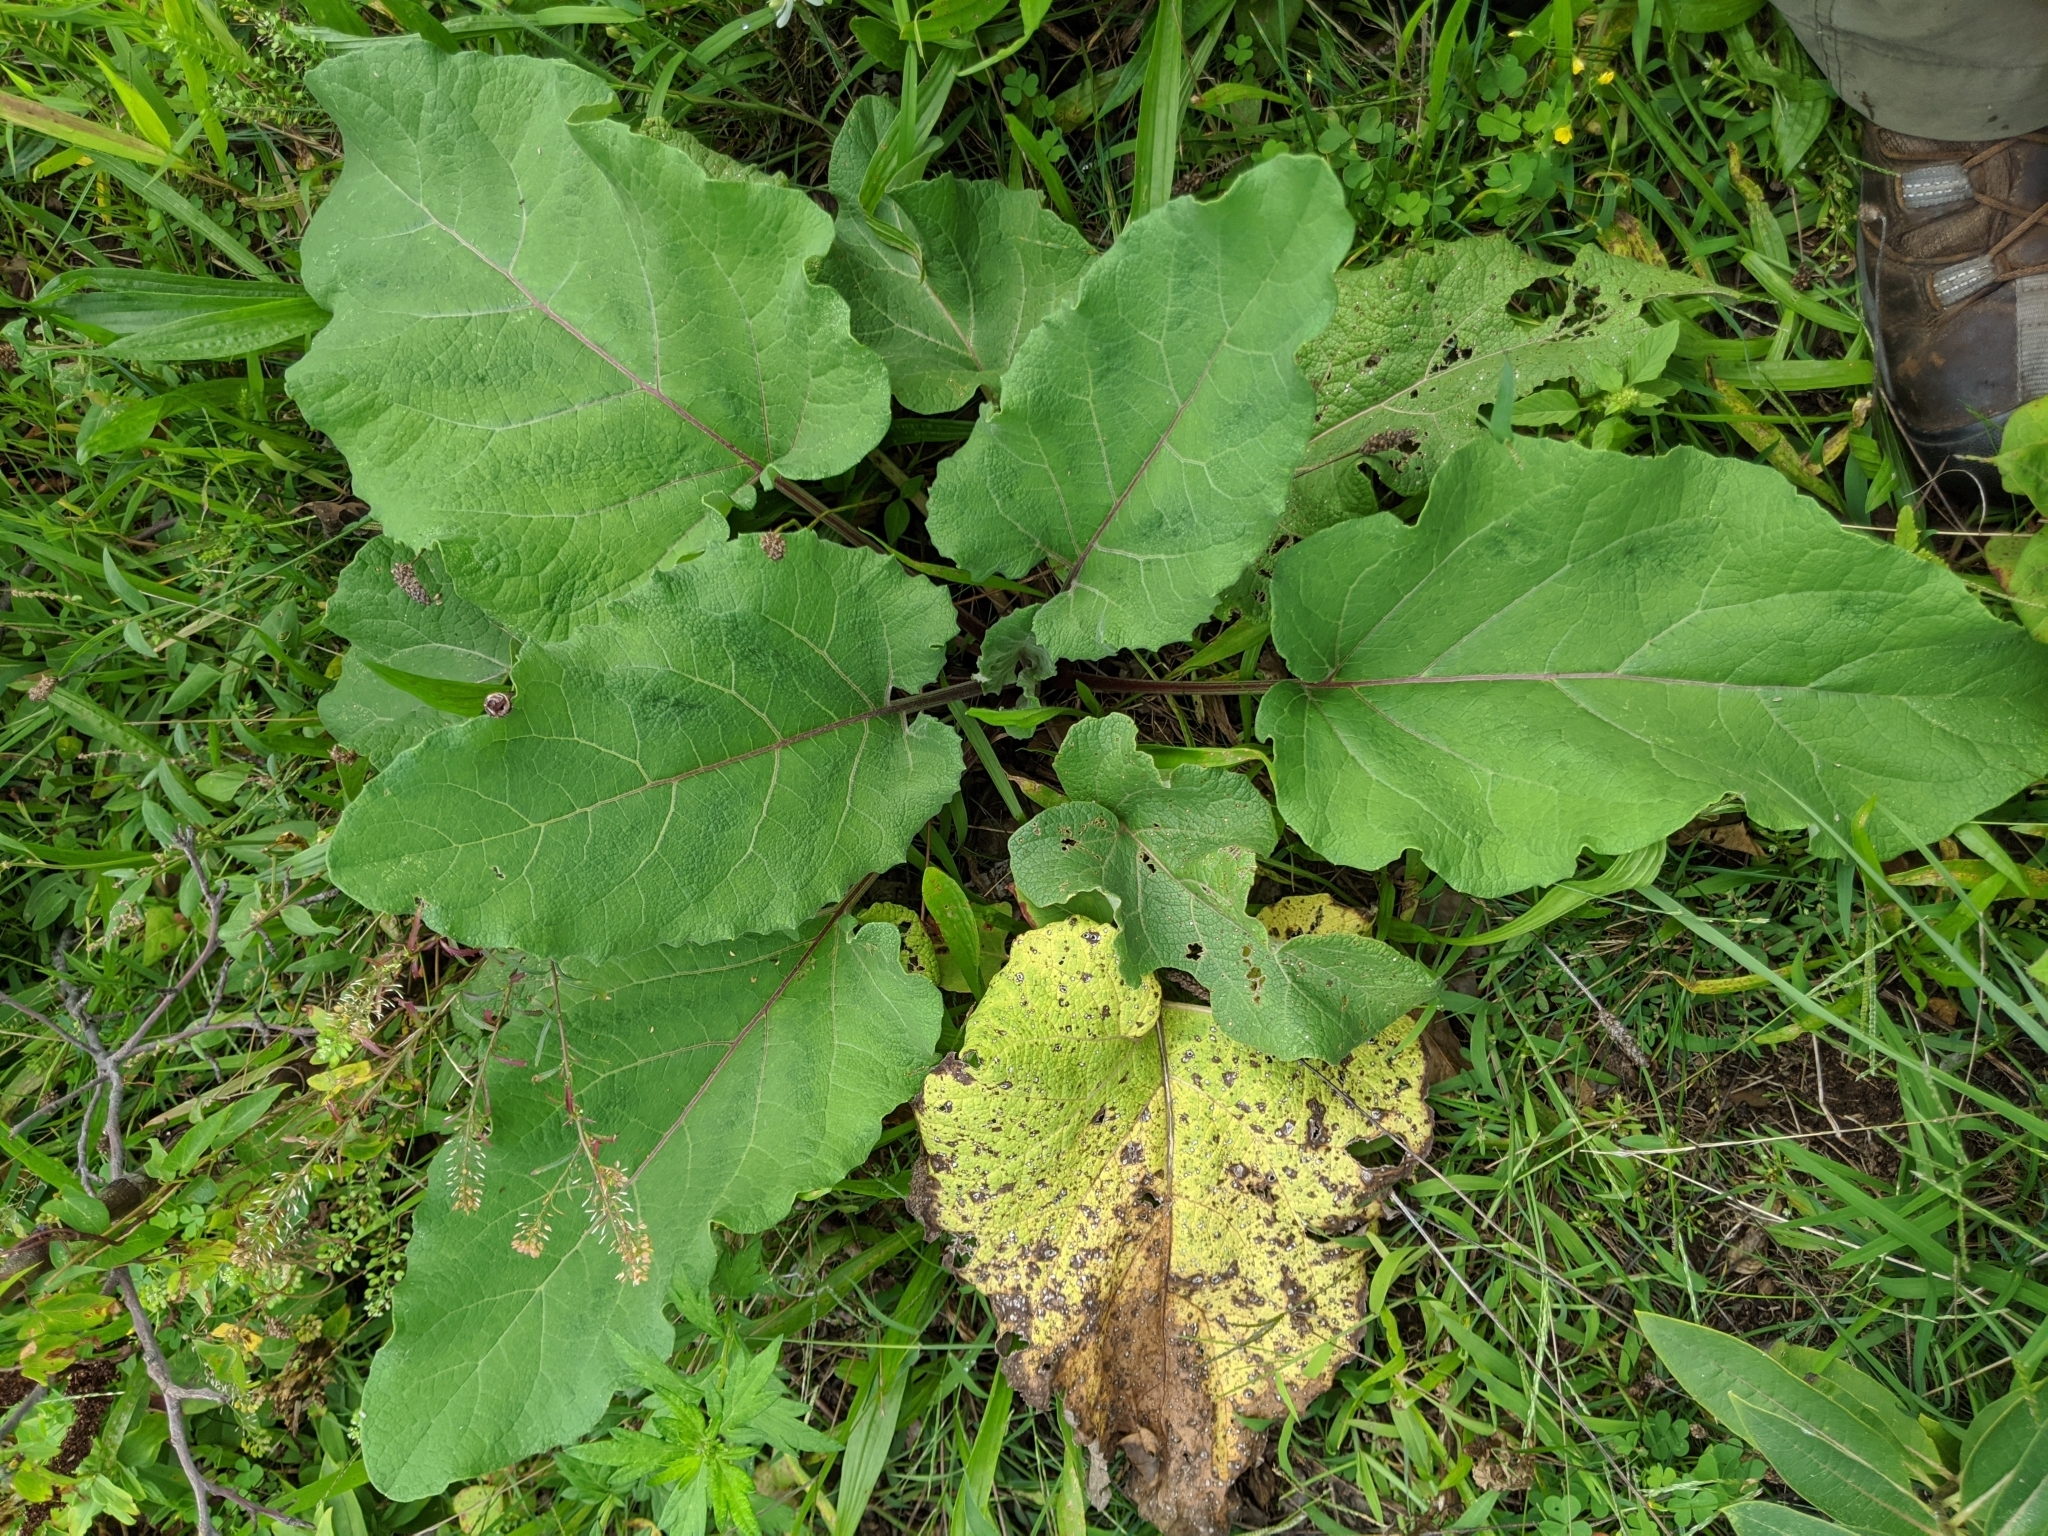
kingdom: Plantae
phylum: Tracheophyta
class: Magnoliopsida
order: Asterales
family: Asteraceae
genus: Arctium
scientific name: Arctium
